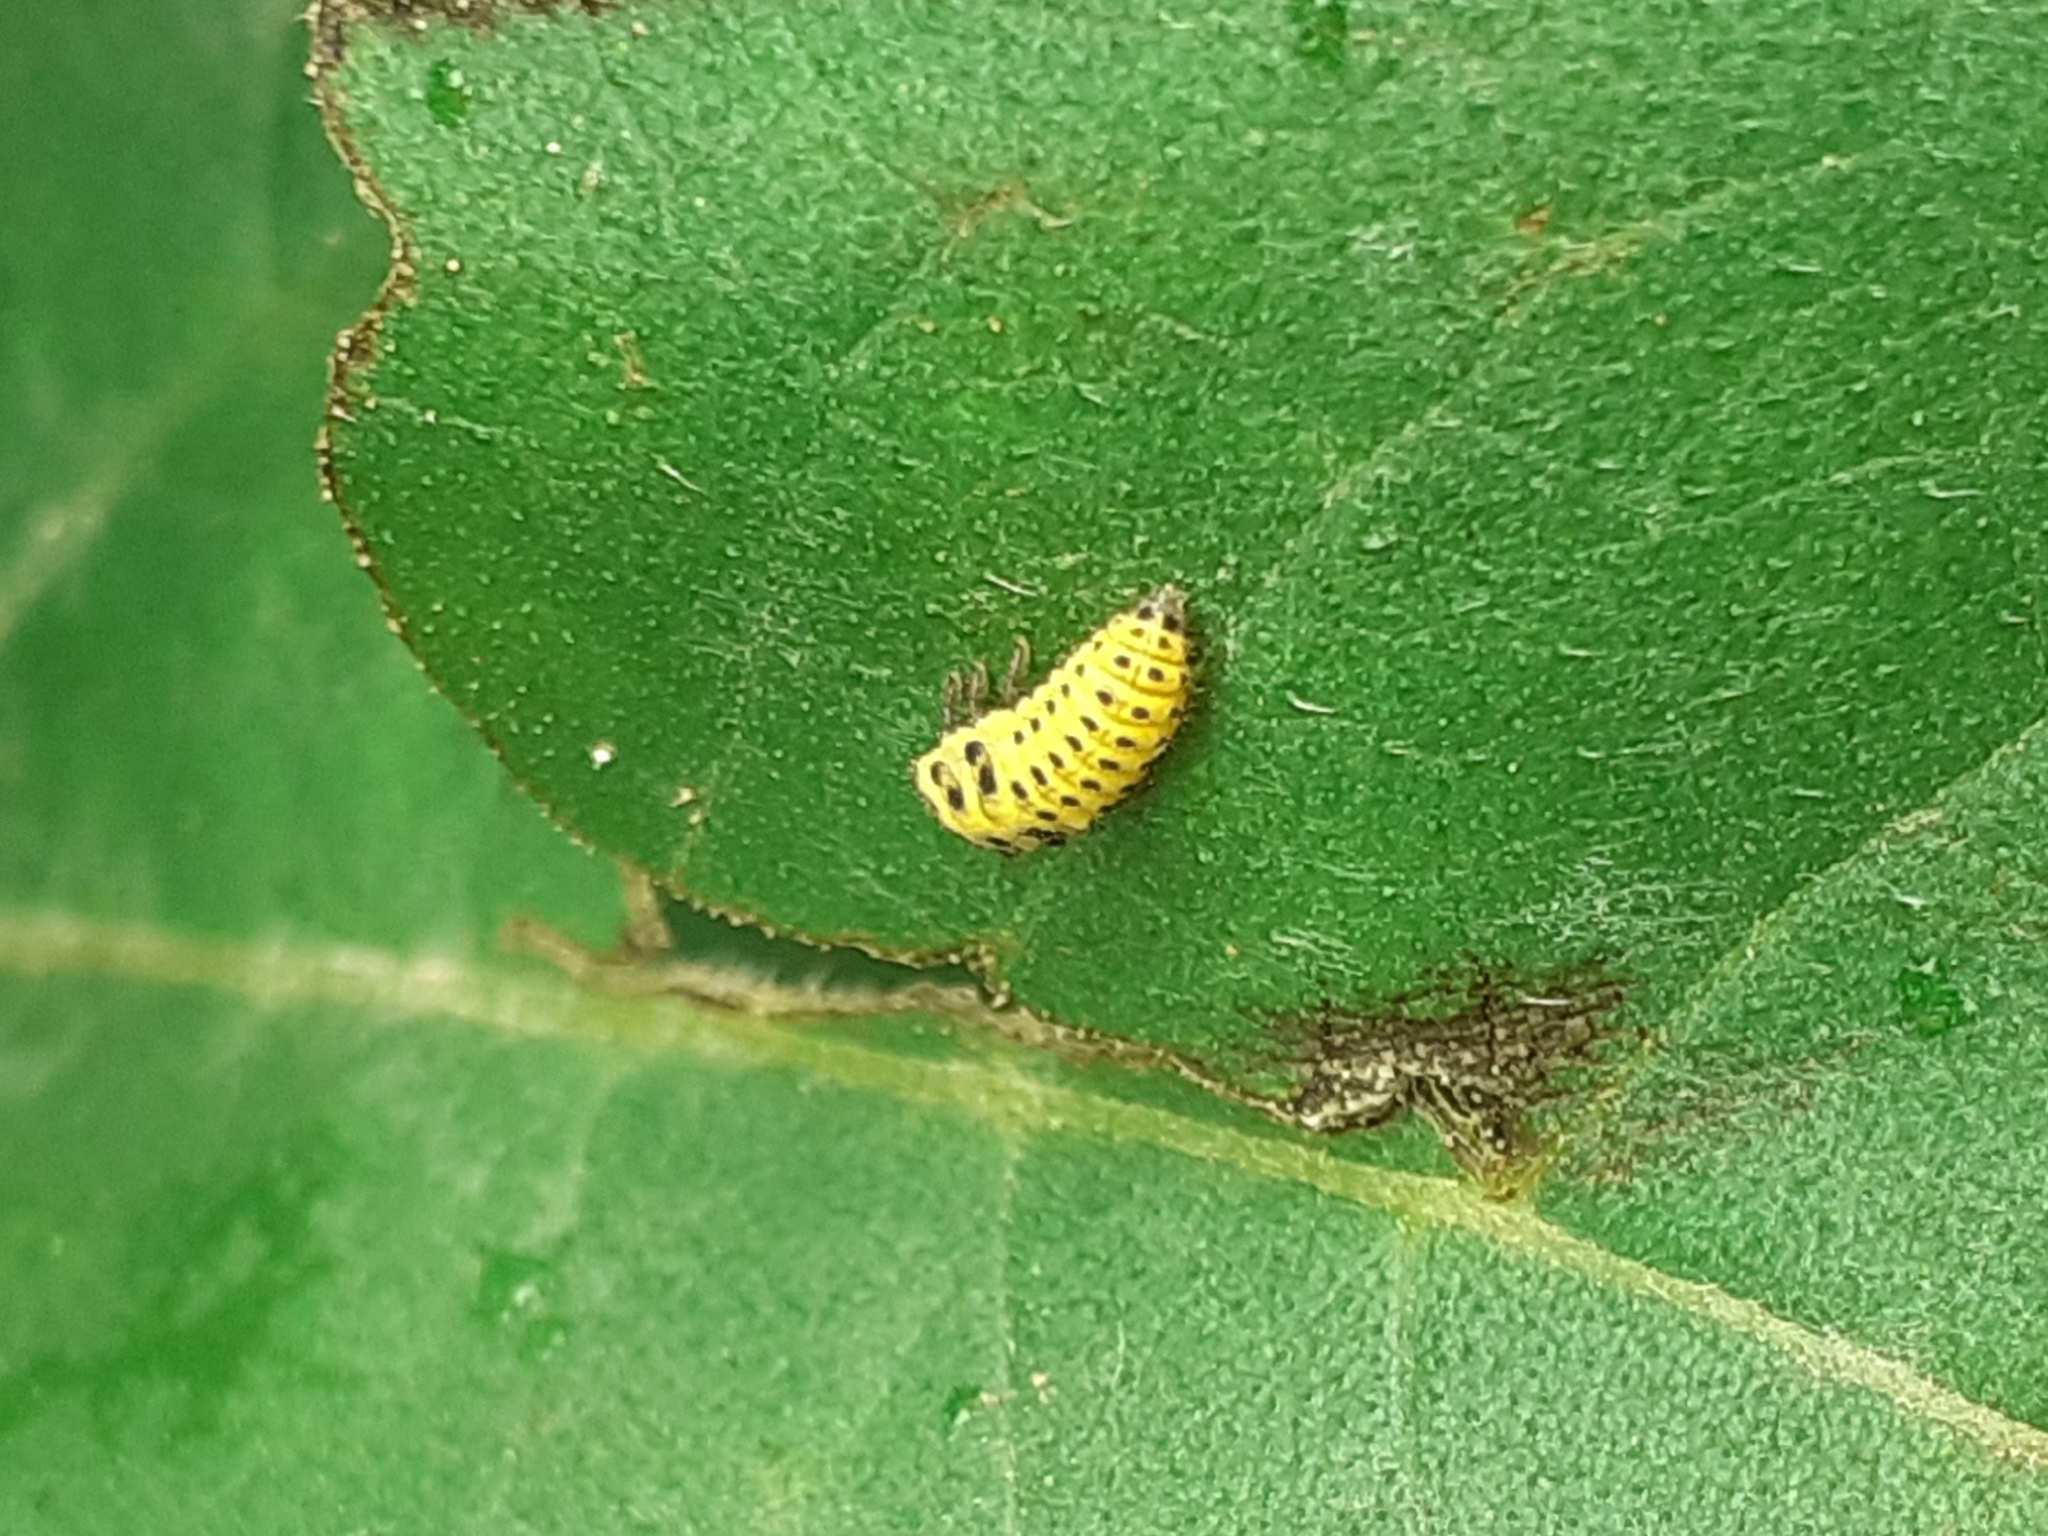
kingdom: Animalia
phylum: Arthropoda
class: Insecta
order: Coleoptera
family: Coccinellidae
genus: Psyllobora
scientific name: Psyllobora vigintiduopunctata
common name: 22-spot ladybird
